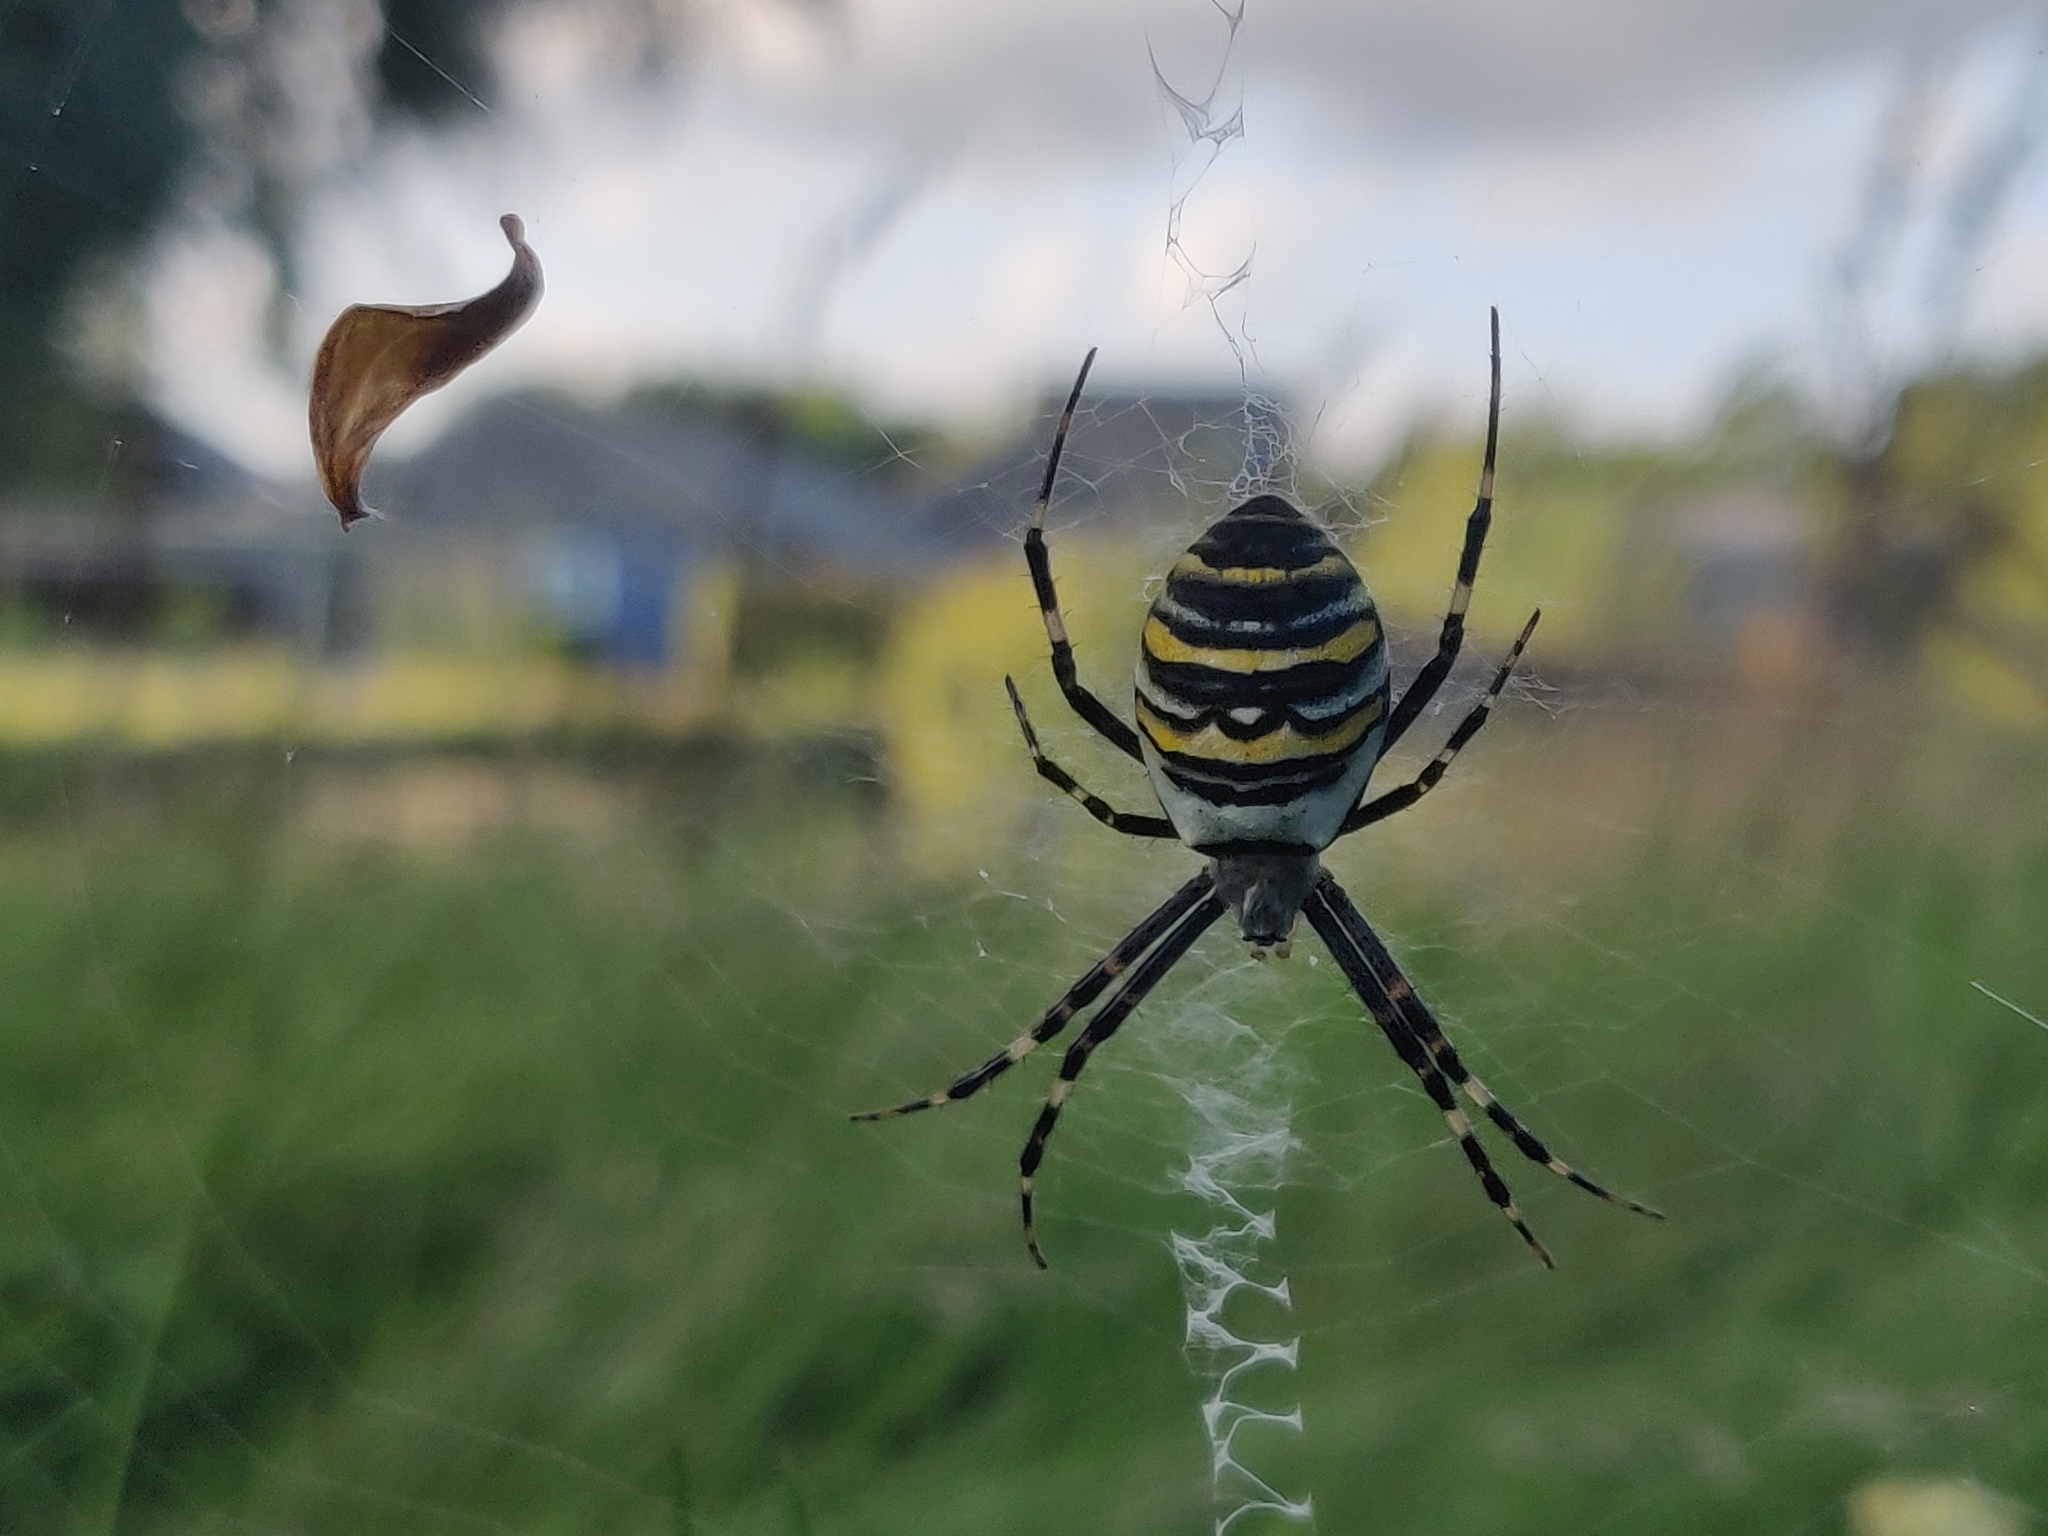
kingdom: Animalia
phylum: Arthropoda
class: Arachnida
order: Araneae
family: Araneidae
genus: Argiope
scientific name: Argiope bruennichi
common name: Wasp spider
